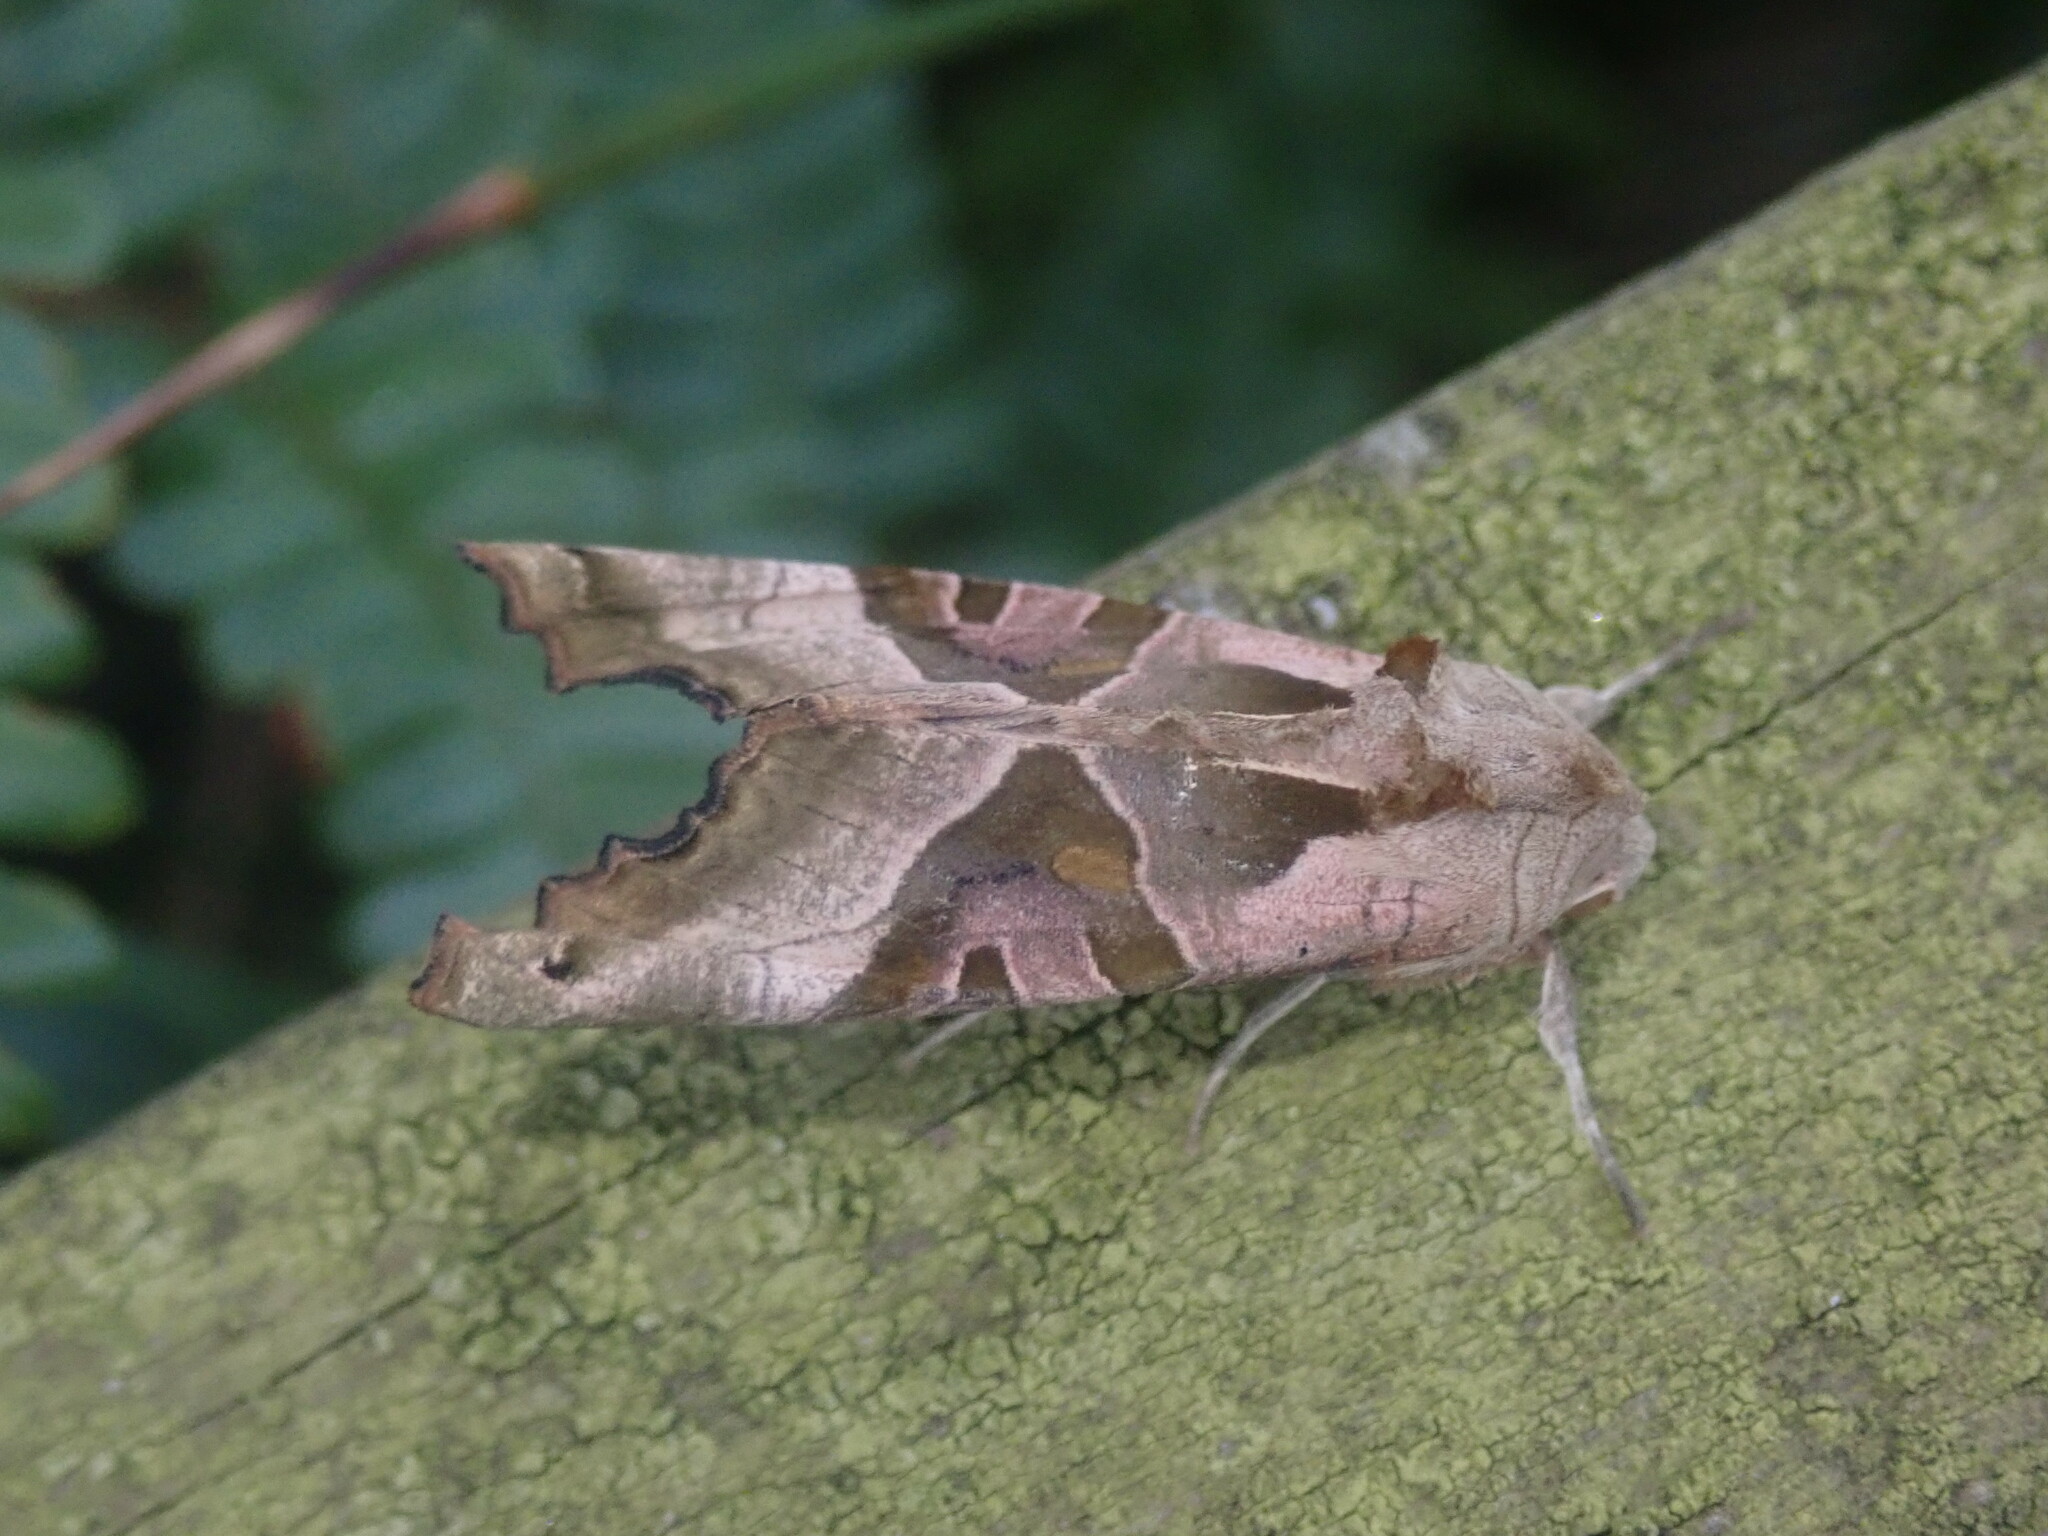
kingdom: Animalia
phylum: Arthropoda
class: Insecta
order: Lepidoptera
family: Noctuidae
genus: Phlogophora
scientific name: Phlogophora meticulosa
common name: Angle shades
